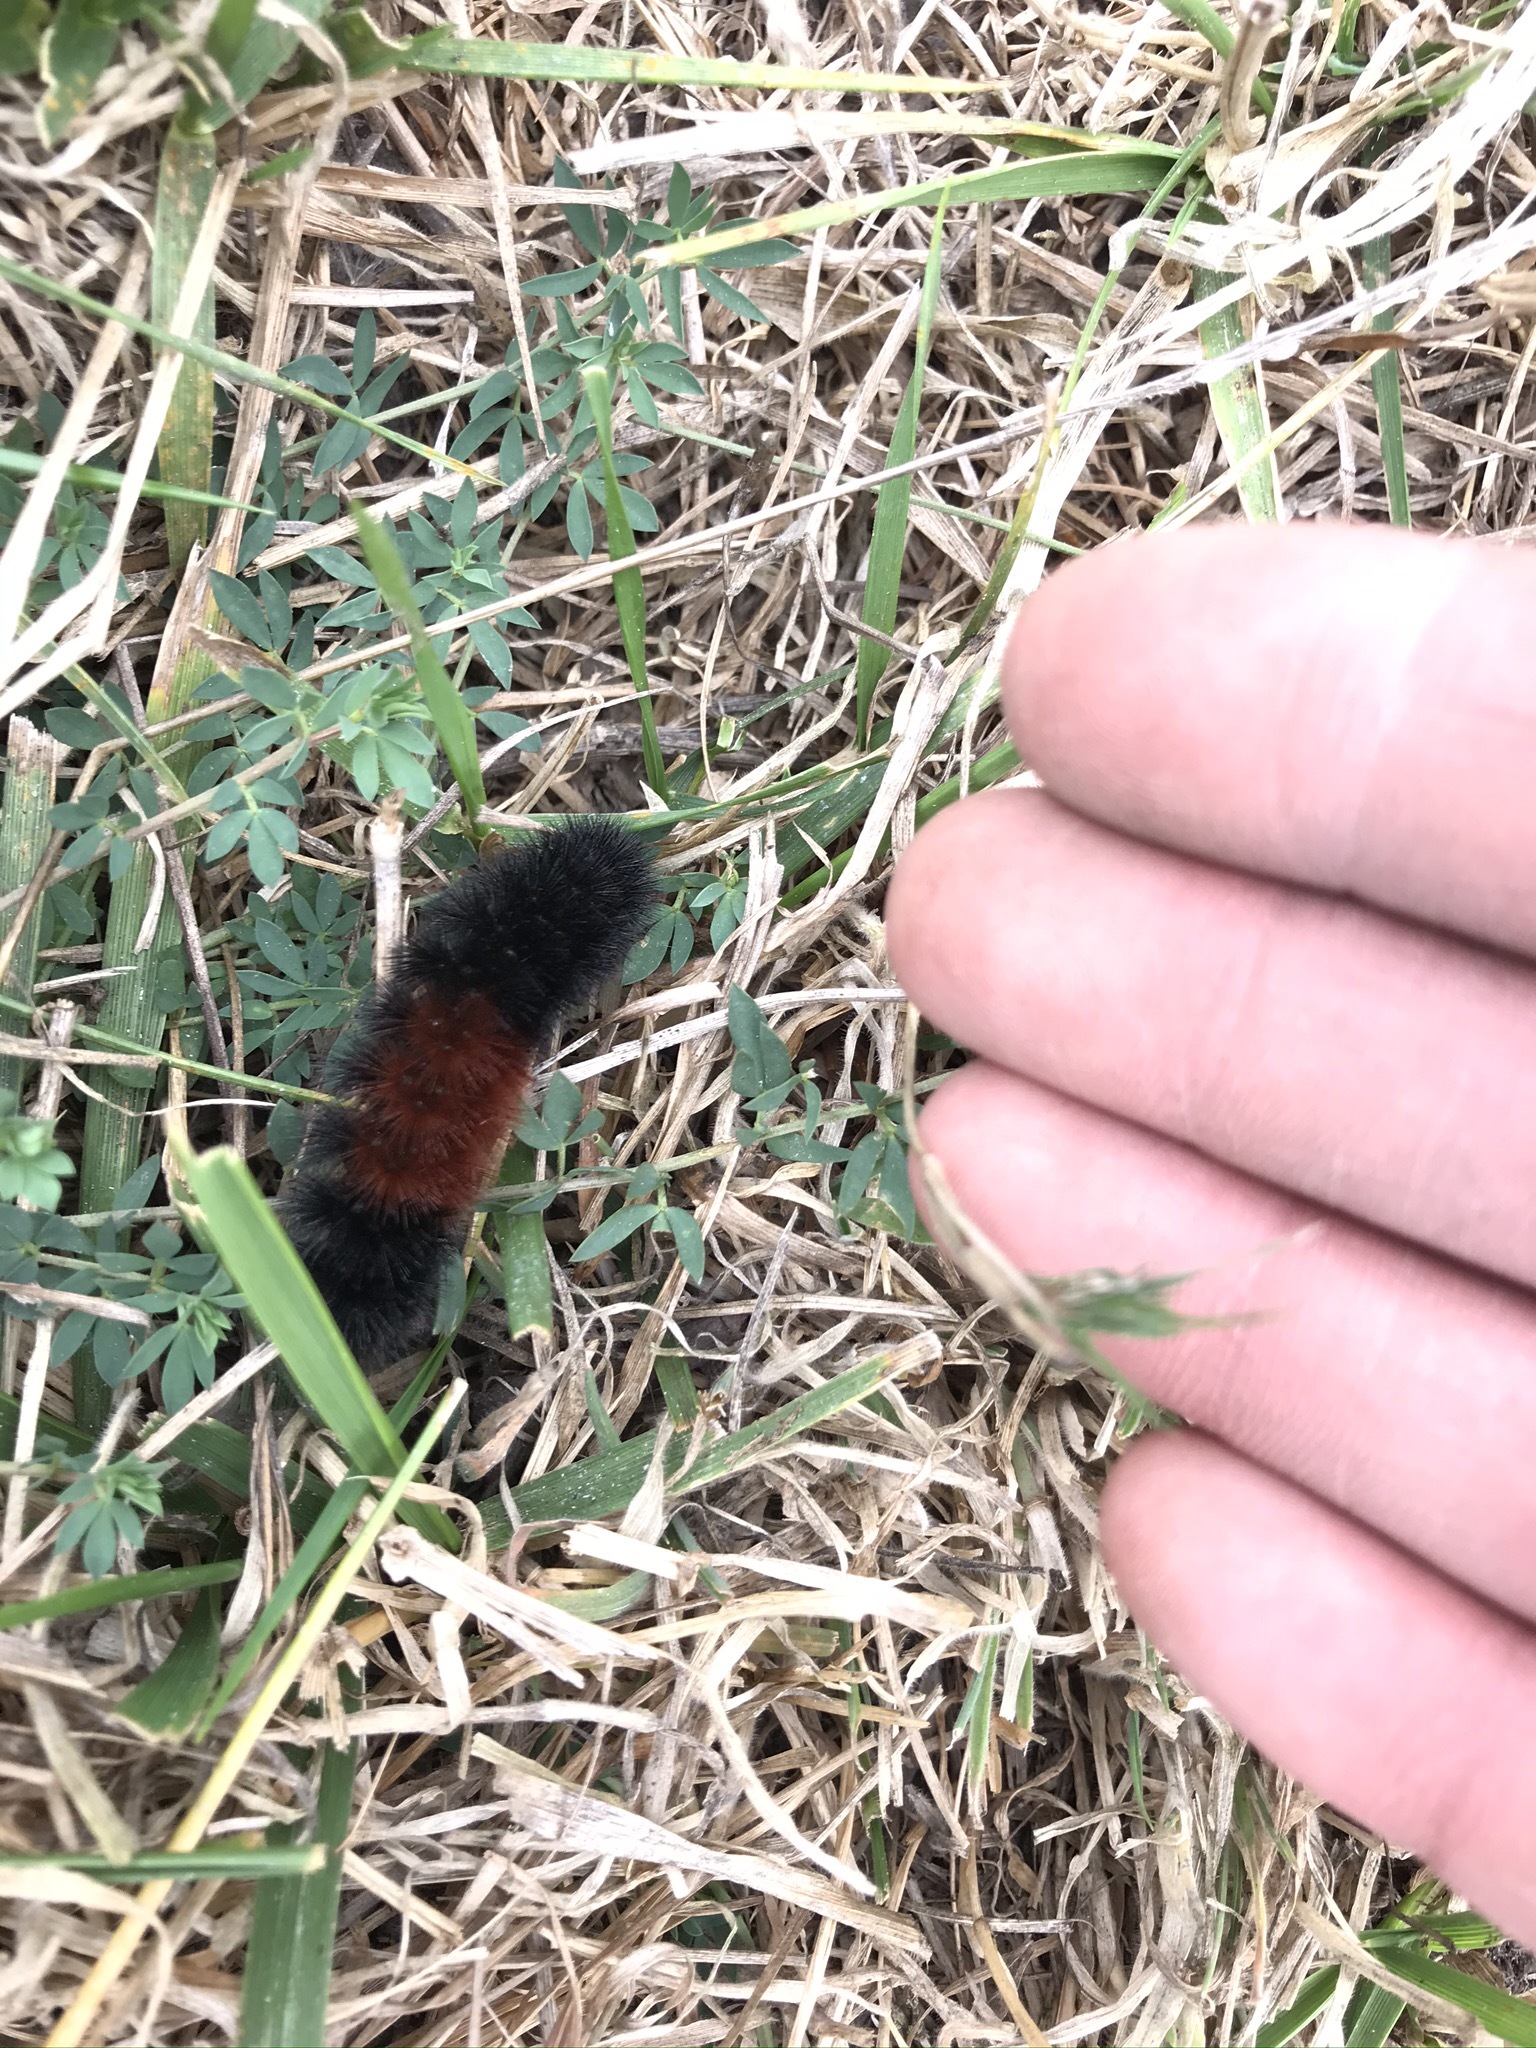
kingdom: Animalia
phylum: Arthropoda
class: Insecta
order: Lepidoptera
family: Erebidae
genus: Pyrrharctia
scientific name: Pyrrharctia isabella
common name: Isabella tiger moth
